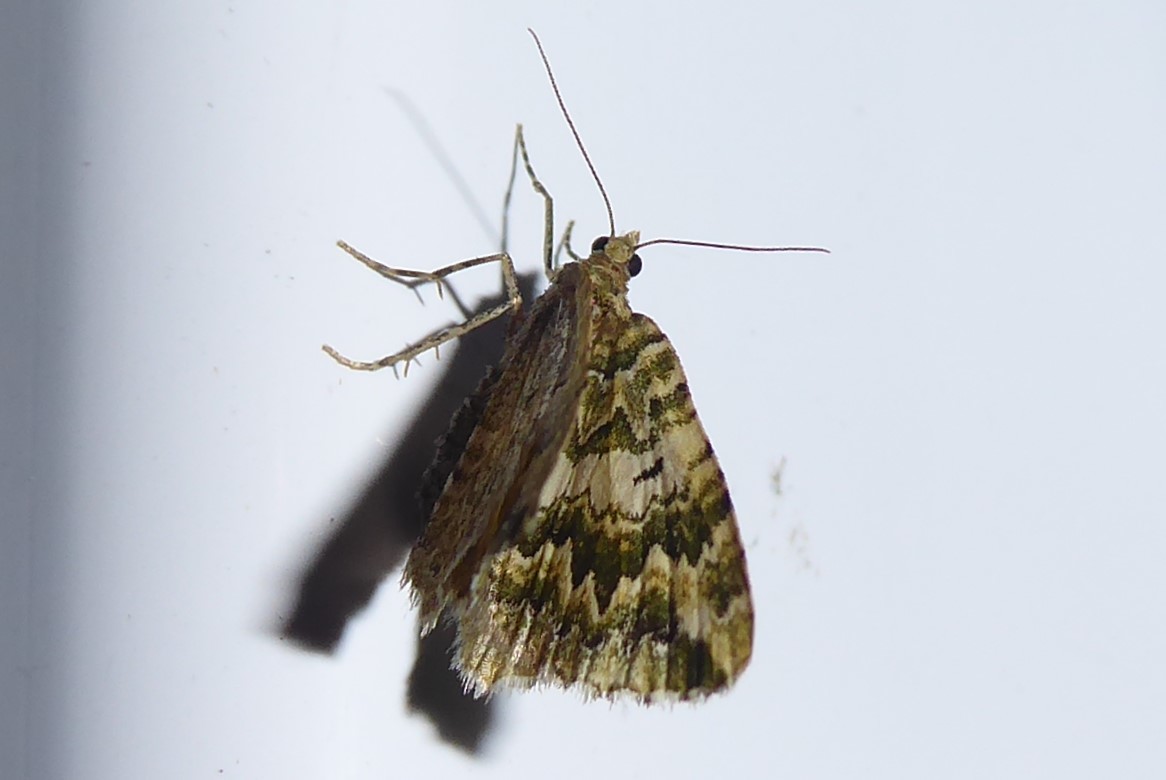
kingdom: Animalia
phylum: Arthropoda
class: Insecta
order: Lepidoptera
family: Geometridae
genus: Asaphodes
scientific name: Asaphodes beata
